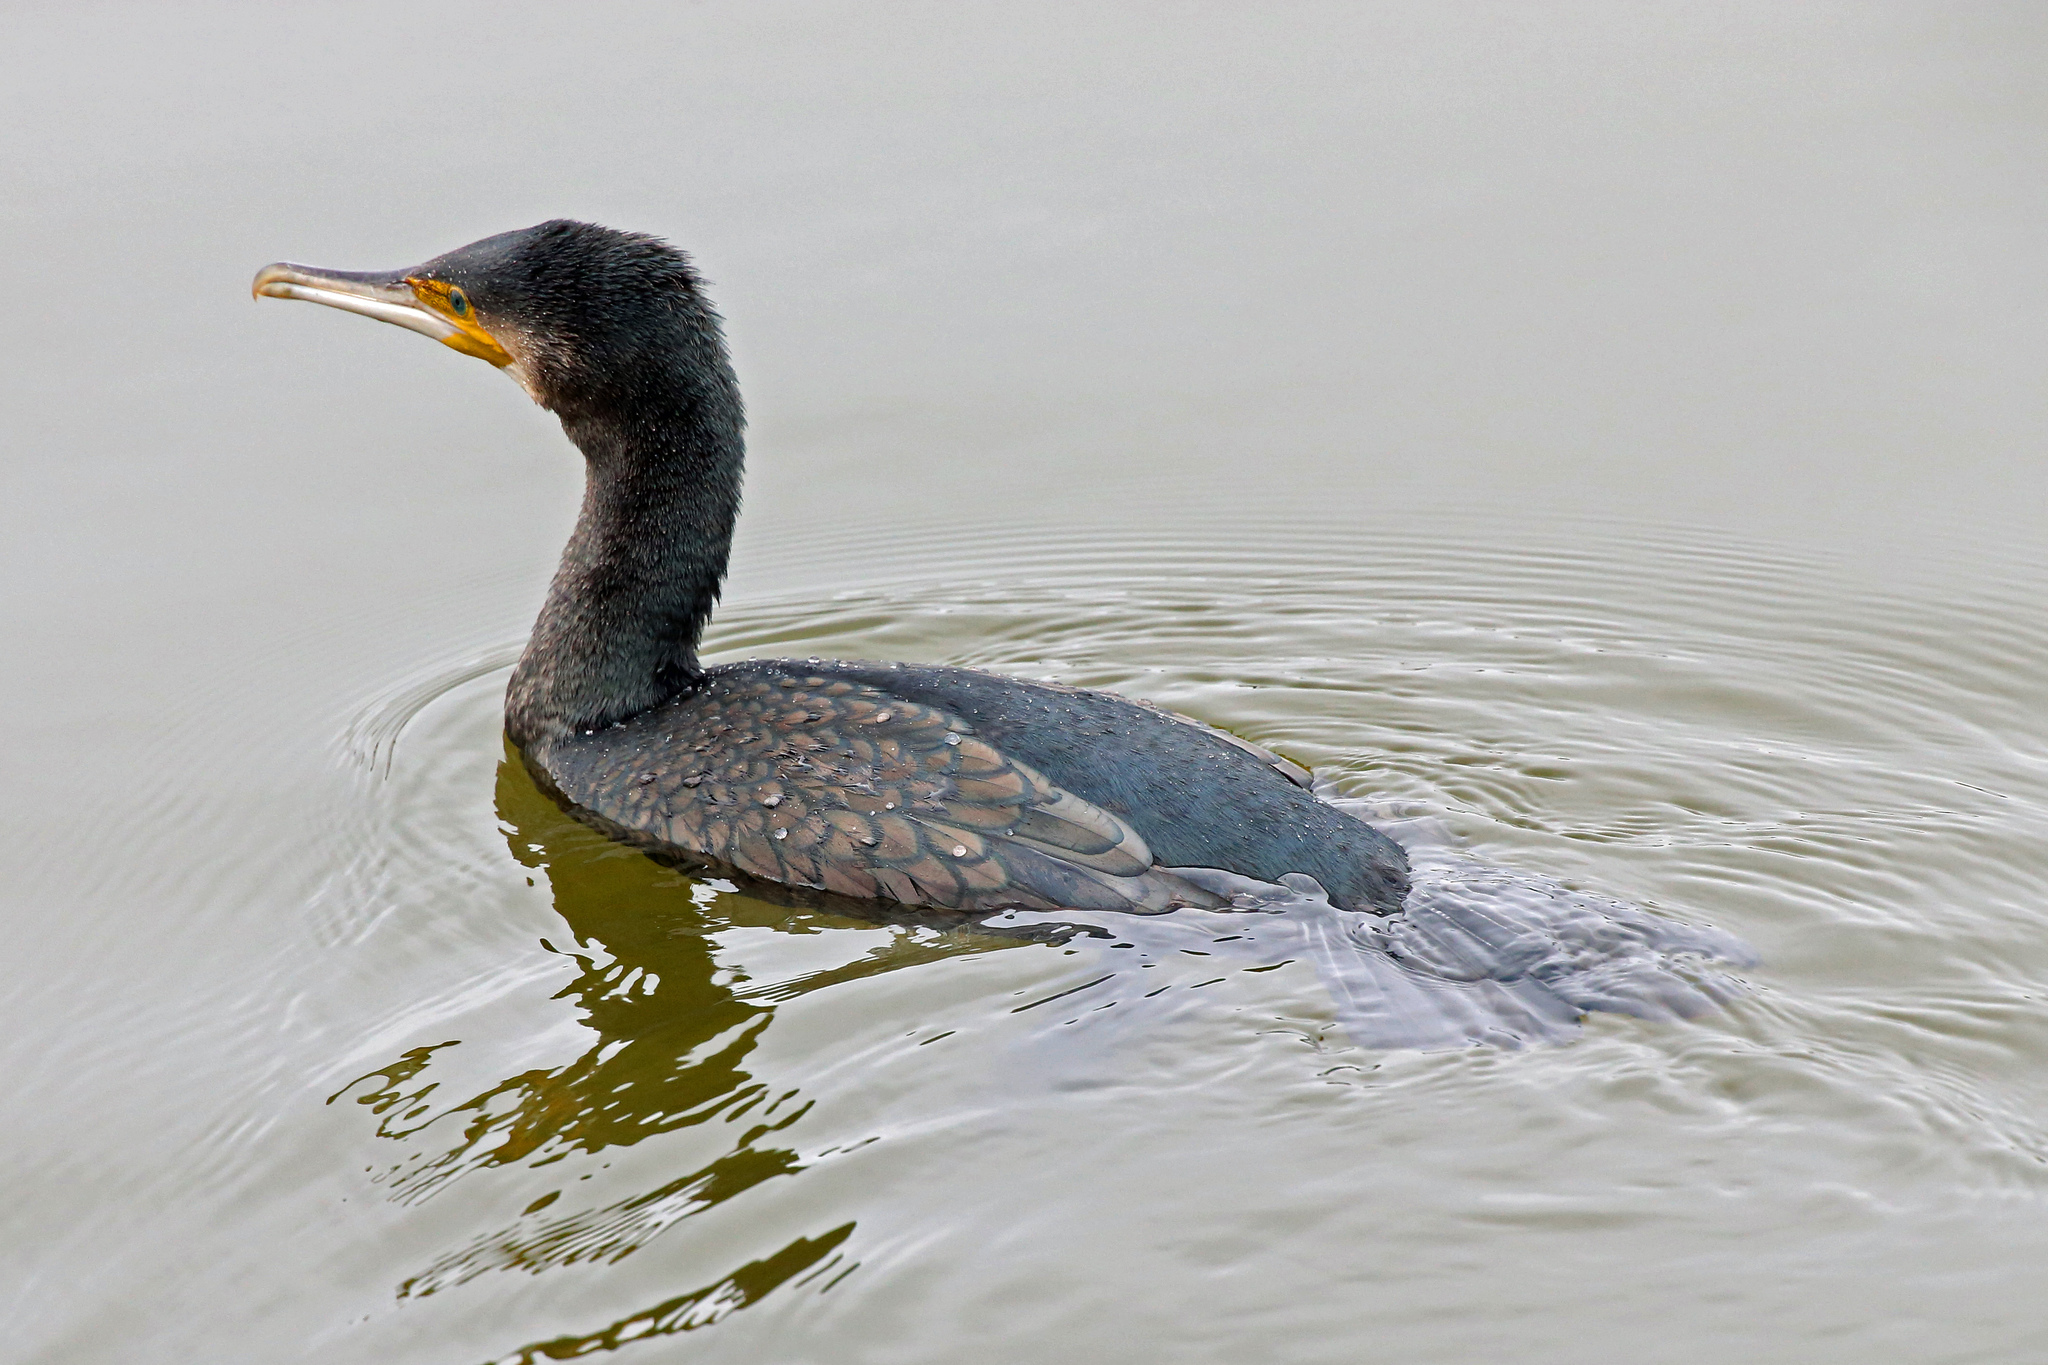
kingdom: Animalia
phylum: Chordata
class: Aves
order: Suliformes
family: Phalacrocoracidae
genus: Phalacrocorax
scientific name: Phalacrocorax carbo
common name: Great cormorant
